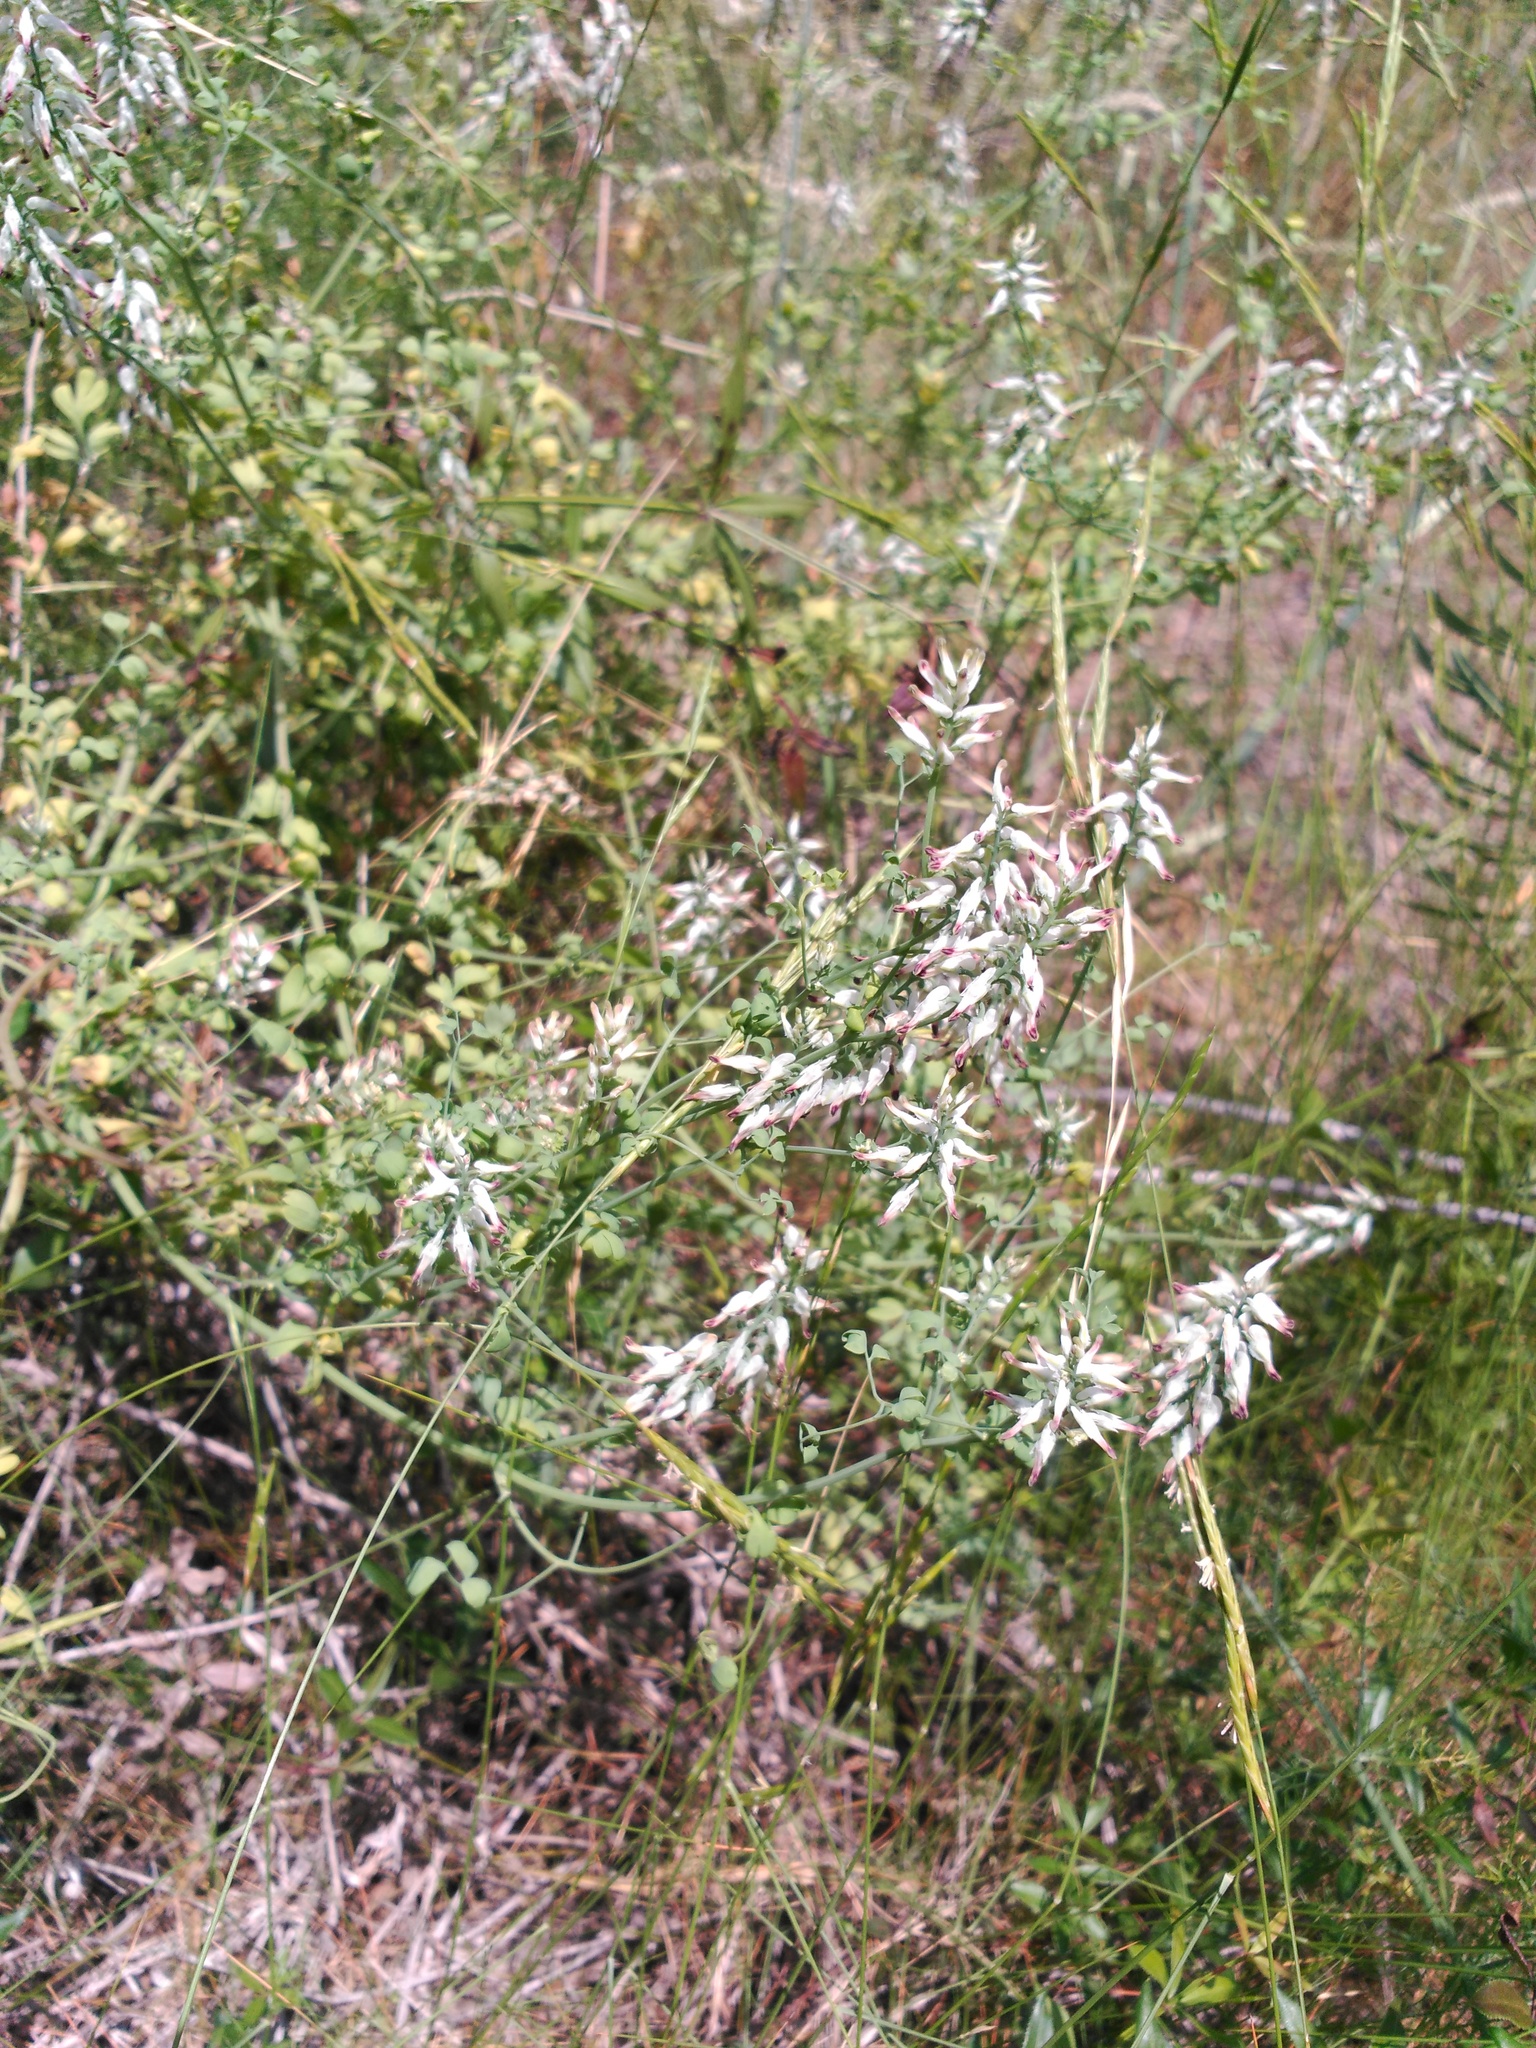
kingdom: Plantae
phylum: Tracheophyta
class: Magnoliopsida
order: Ranunculales
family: Papaveraceae
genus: Fumaria
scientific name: Fumaria capreolata
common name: White ramping-fumitory
